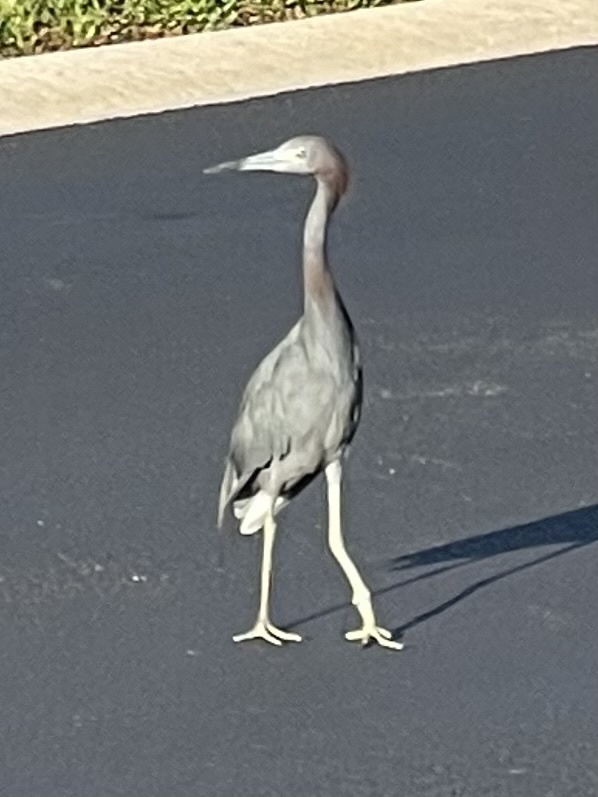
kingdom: Animalia
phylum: Chordata
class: Aves
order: Pelecaniformes
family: Ardeidae
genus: Egretta
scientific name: Egretta caerulea
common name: Little blue heron
